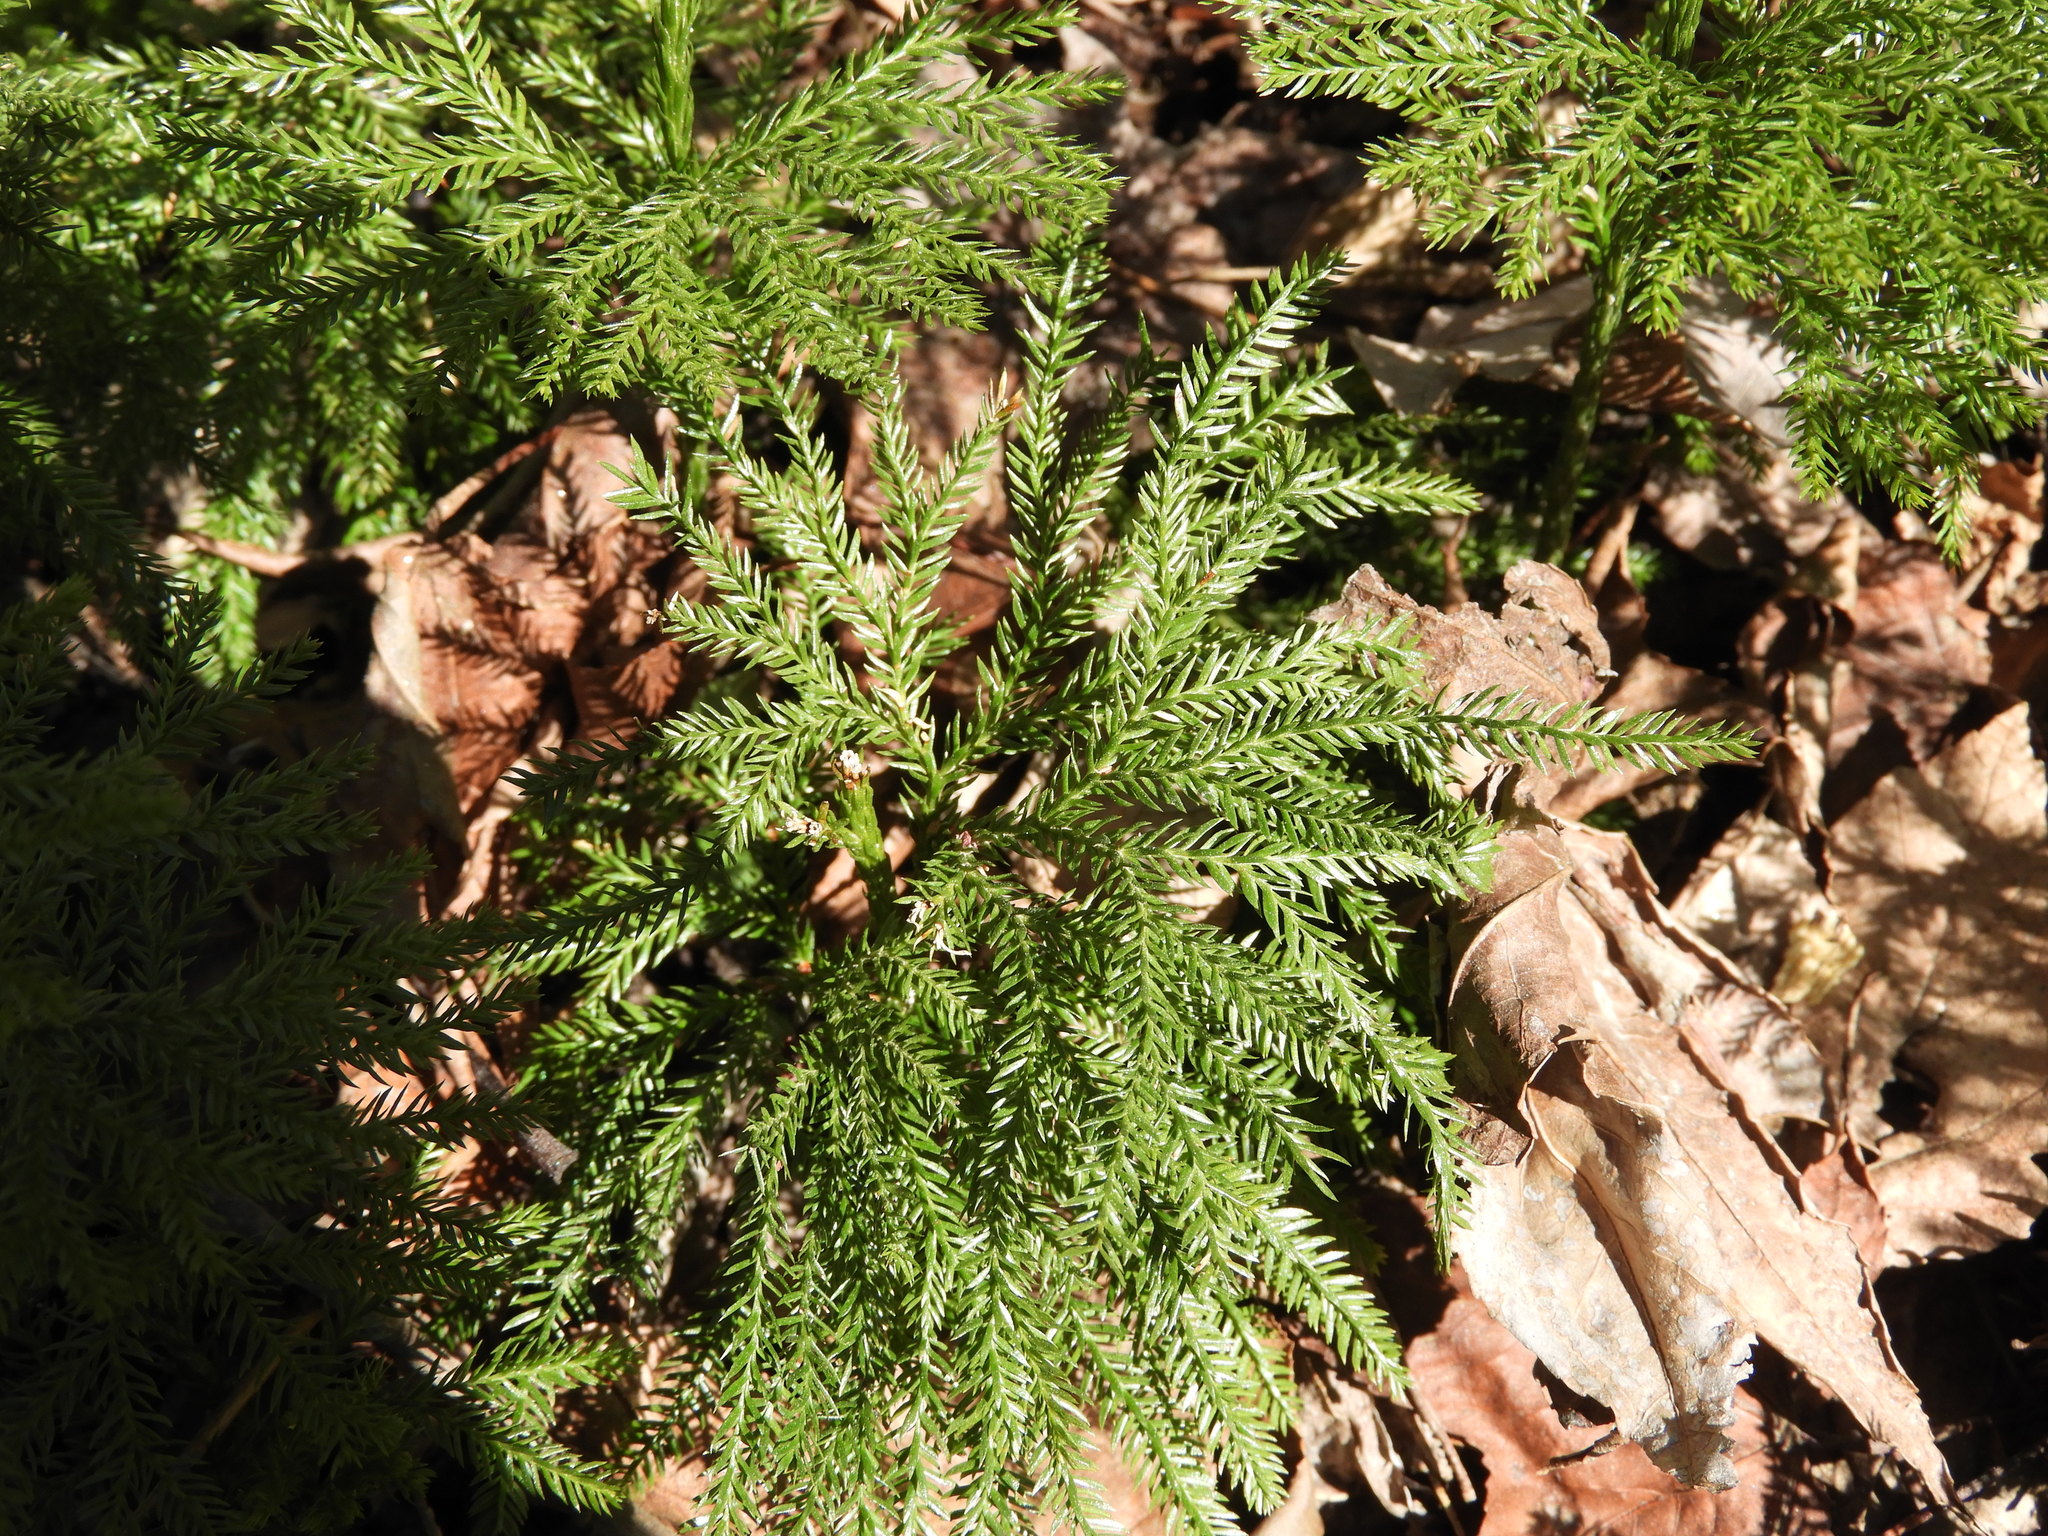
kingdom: Plantae
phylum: Tracheophyta
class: Lycopodiopsida
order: Lycopodiales
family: Lycopodiaceae
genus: Dendrolycopodium
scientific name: Dendrolycopodium obscurum
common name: Common ground-pine
